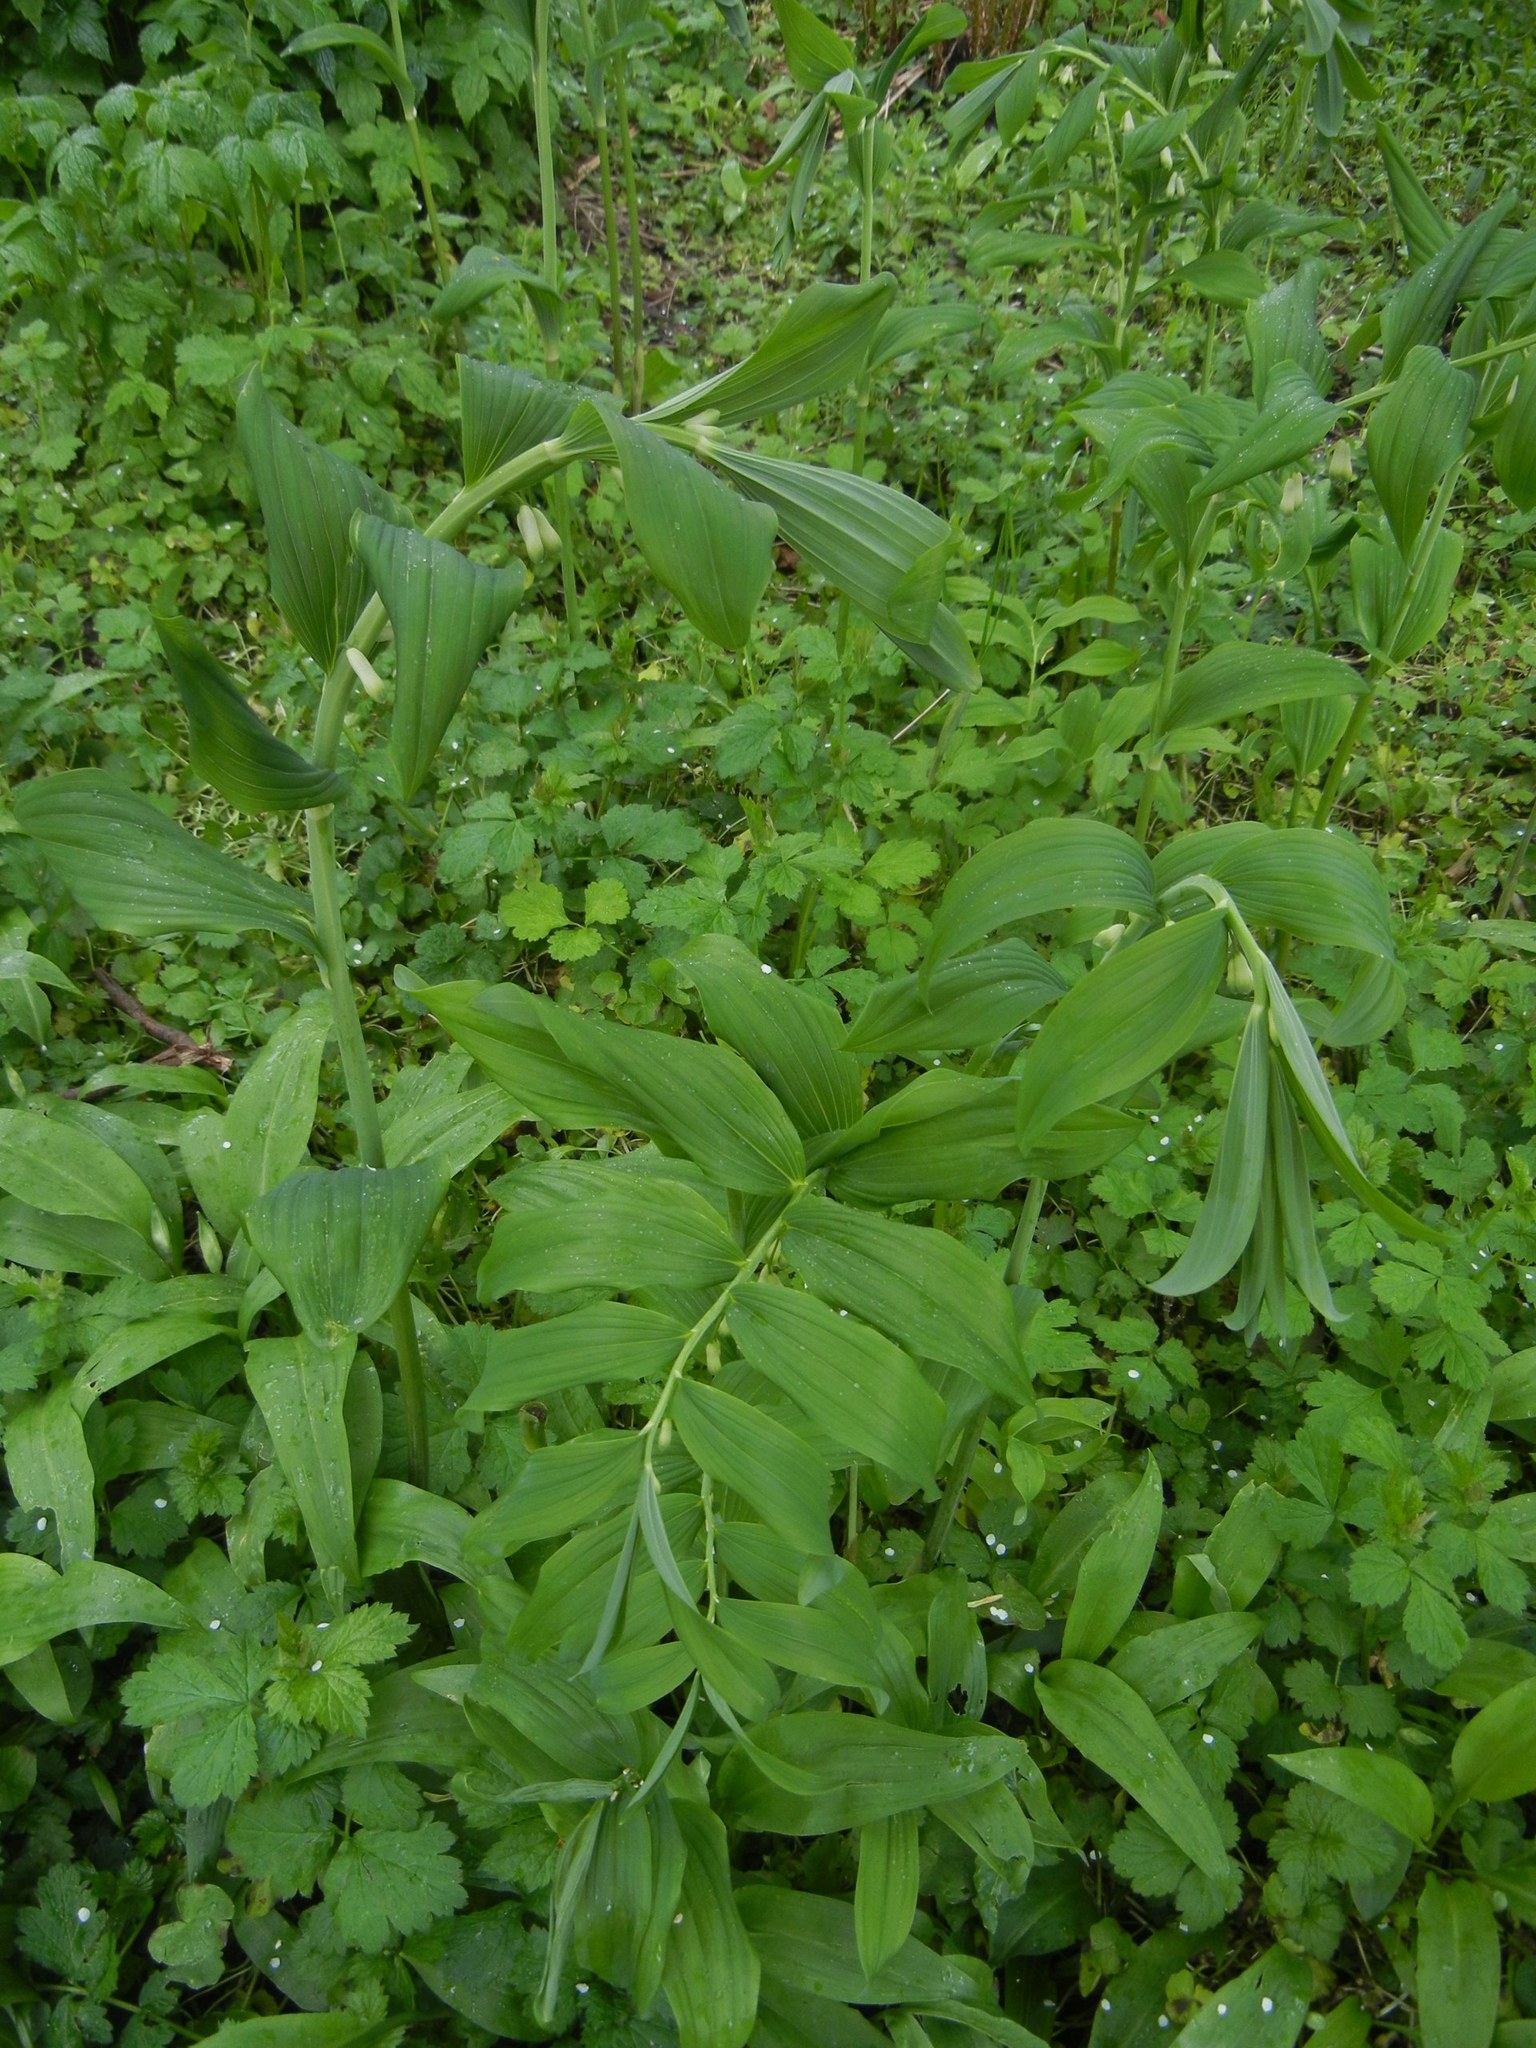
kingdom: Plantae
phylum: Tracheophyta
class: Liliopsida
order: Asparagales
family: Asparagaceae
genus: Polygonatum
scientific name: Polygonatum hybridum
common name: Garden solomon's-seal
